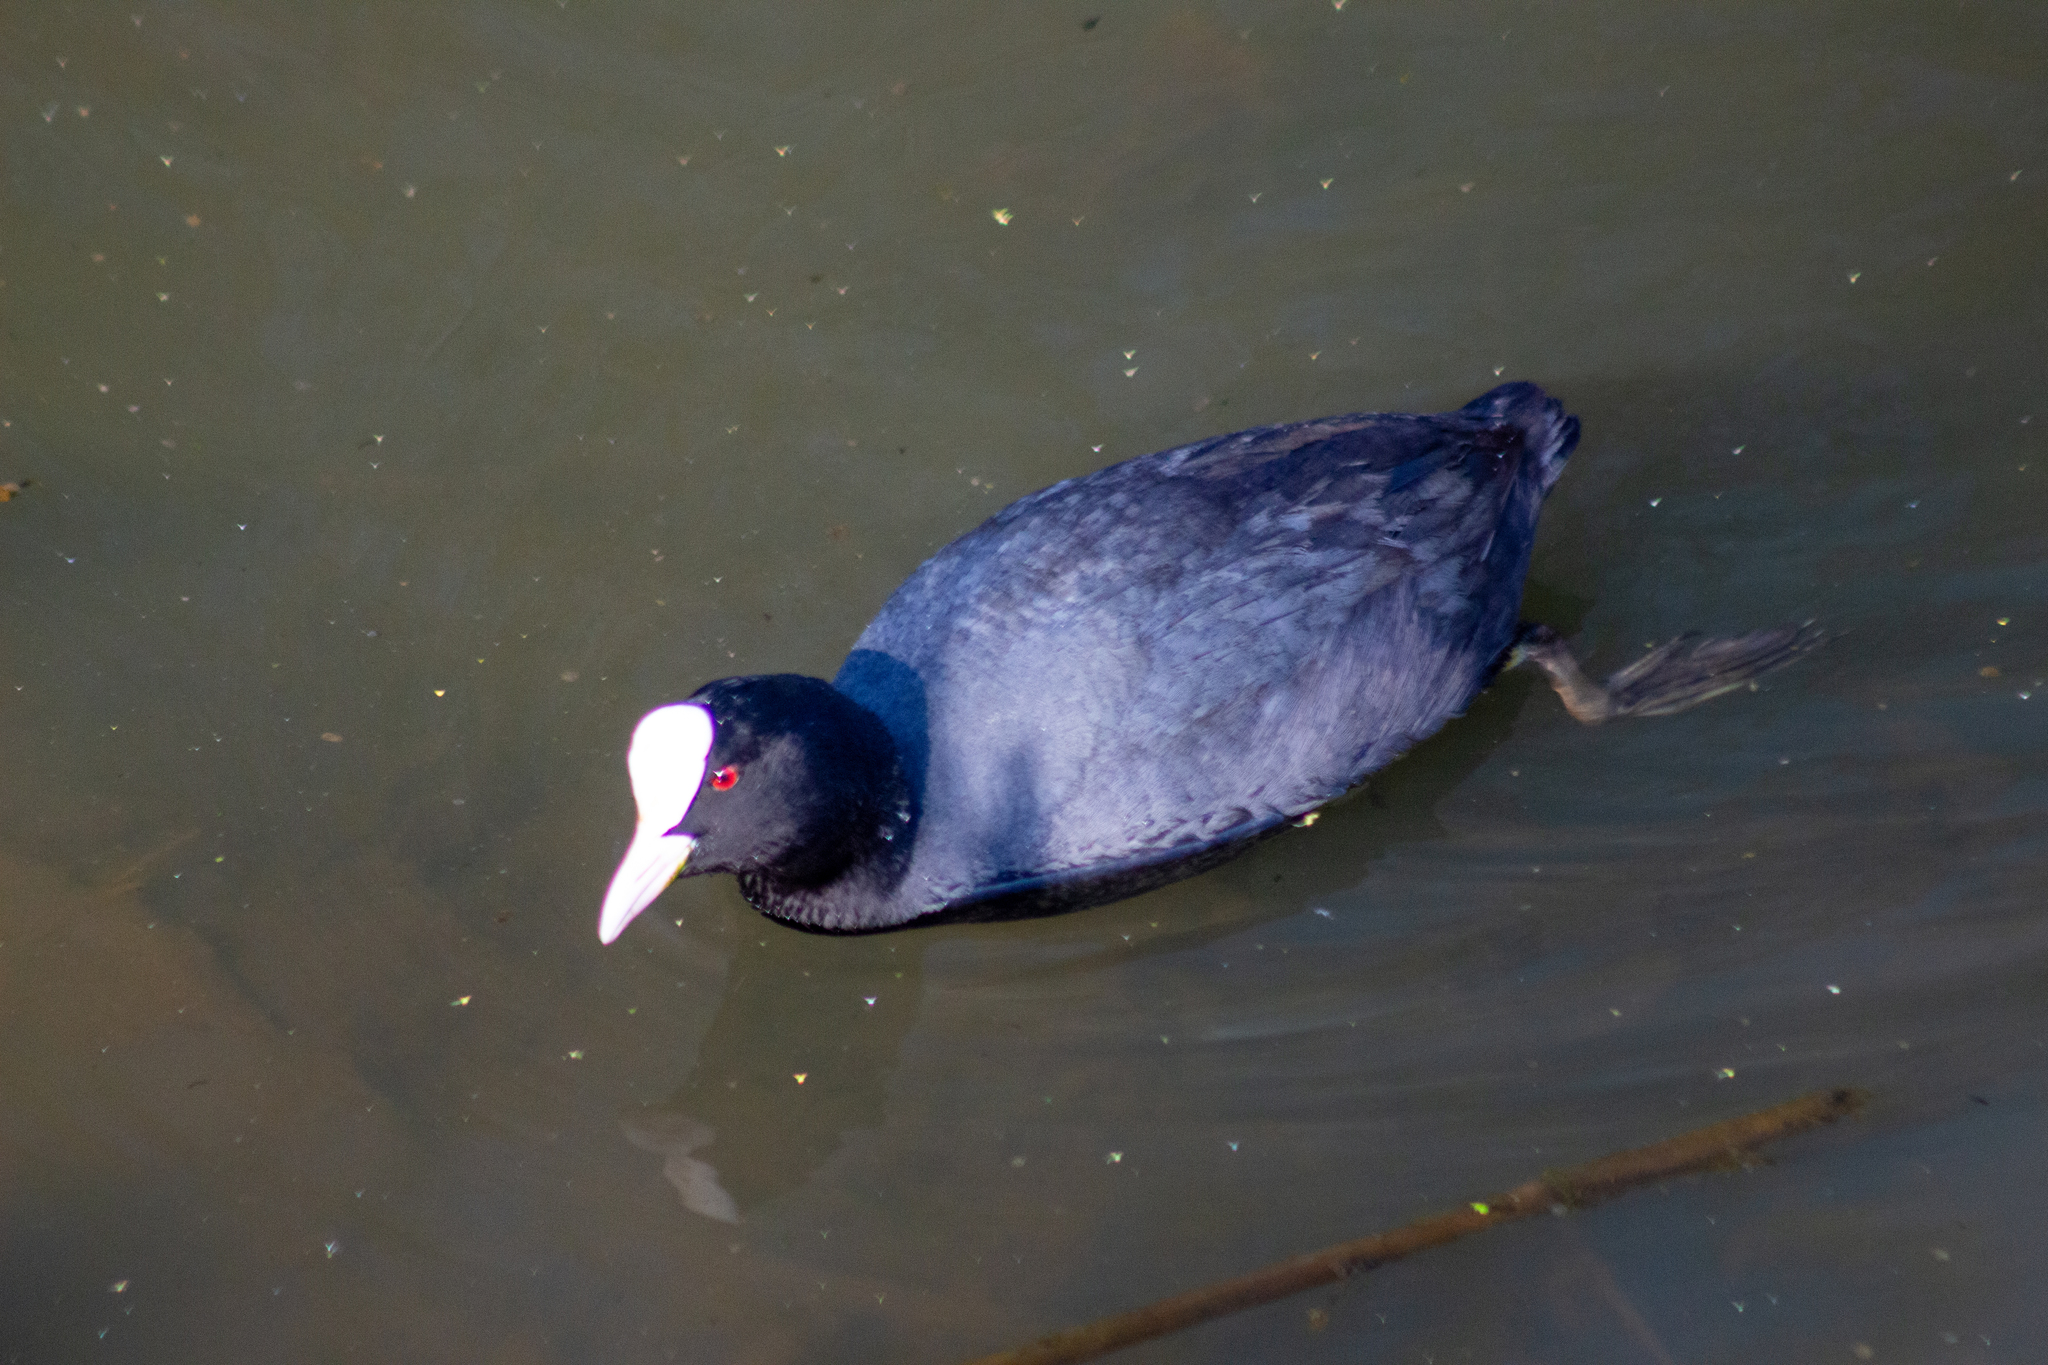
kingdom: Animalia
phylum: Chordata
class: Aves
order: Gruiformes
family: Rallidae
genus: Fulica
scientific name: Fulica atra
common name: Eurasian coot
